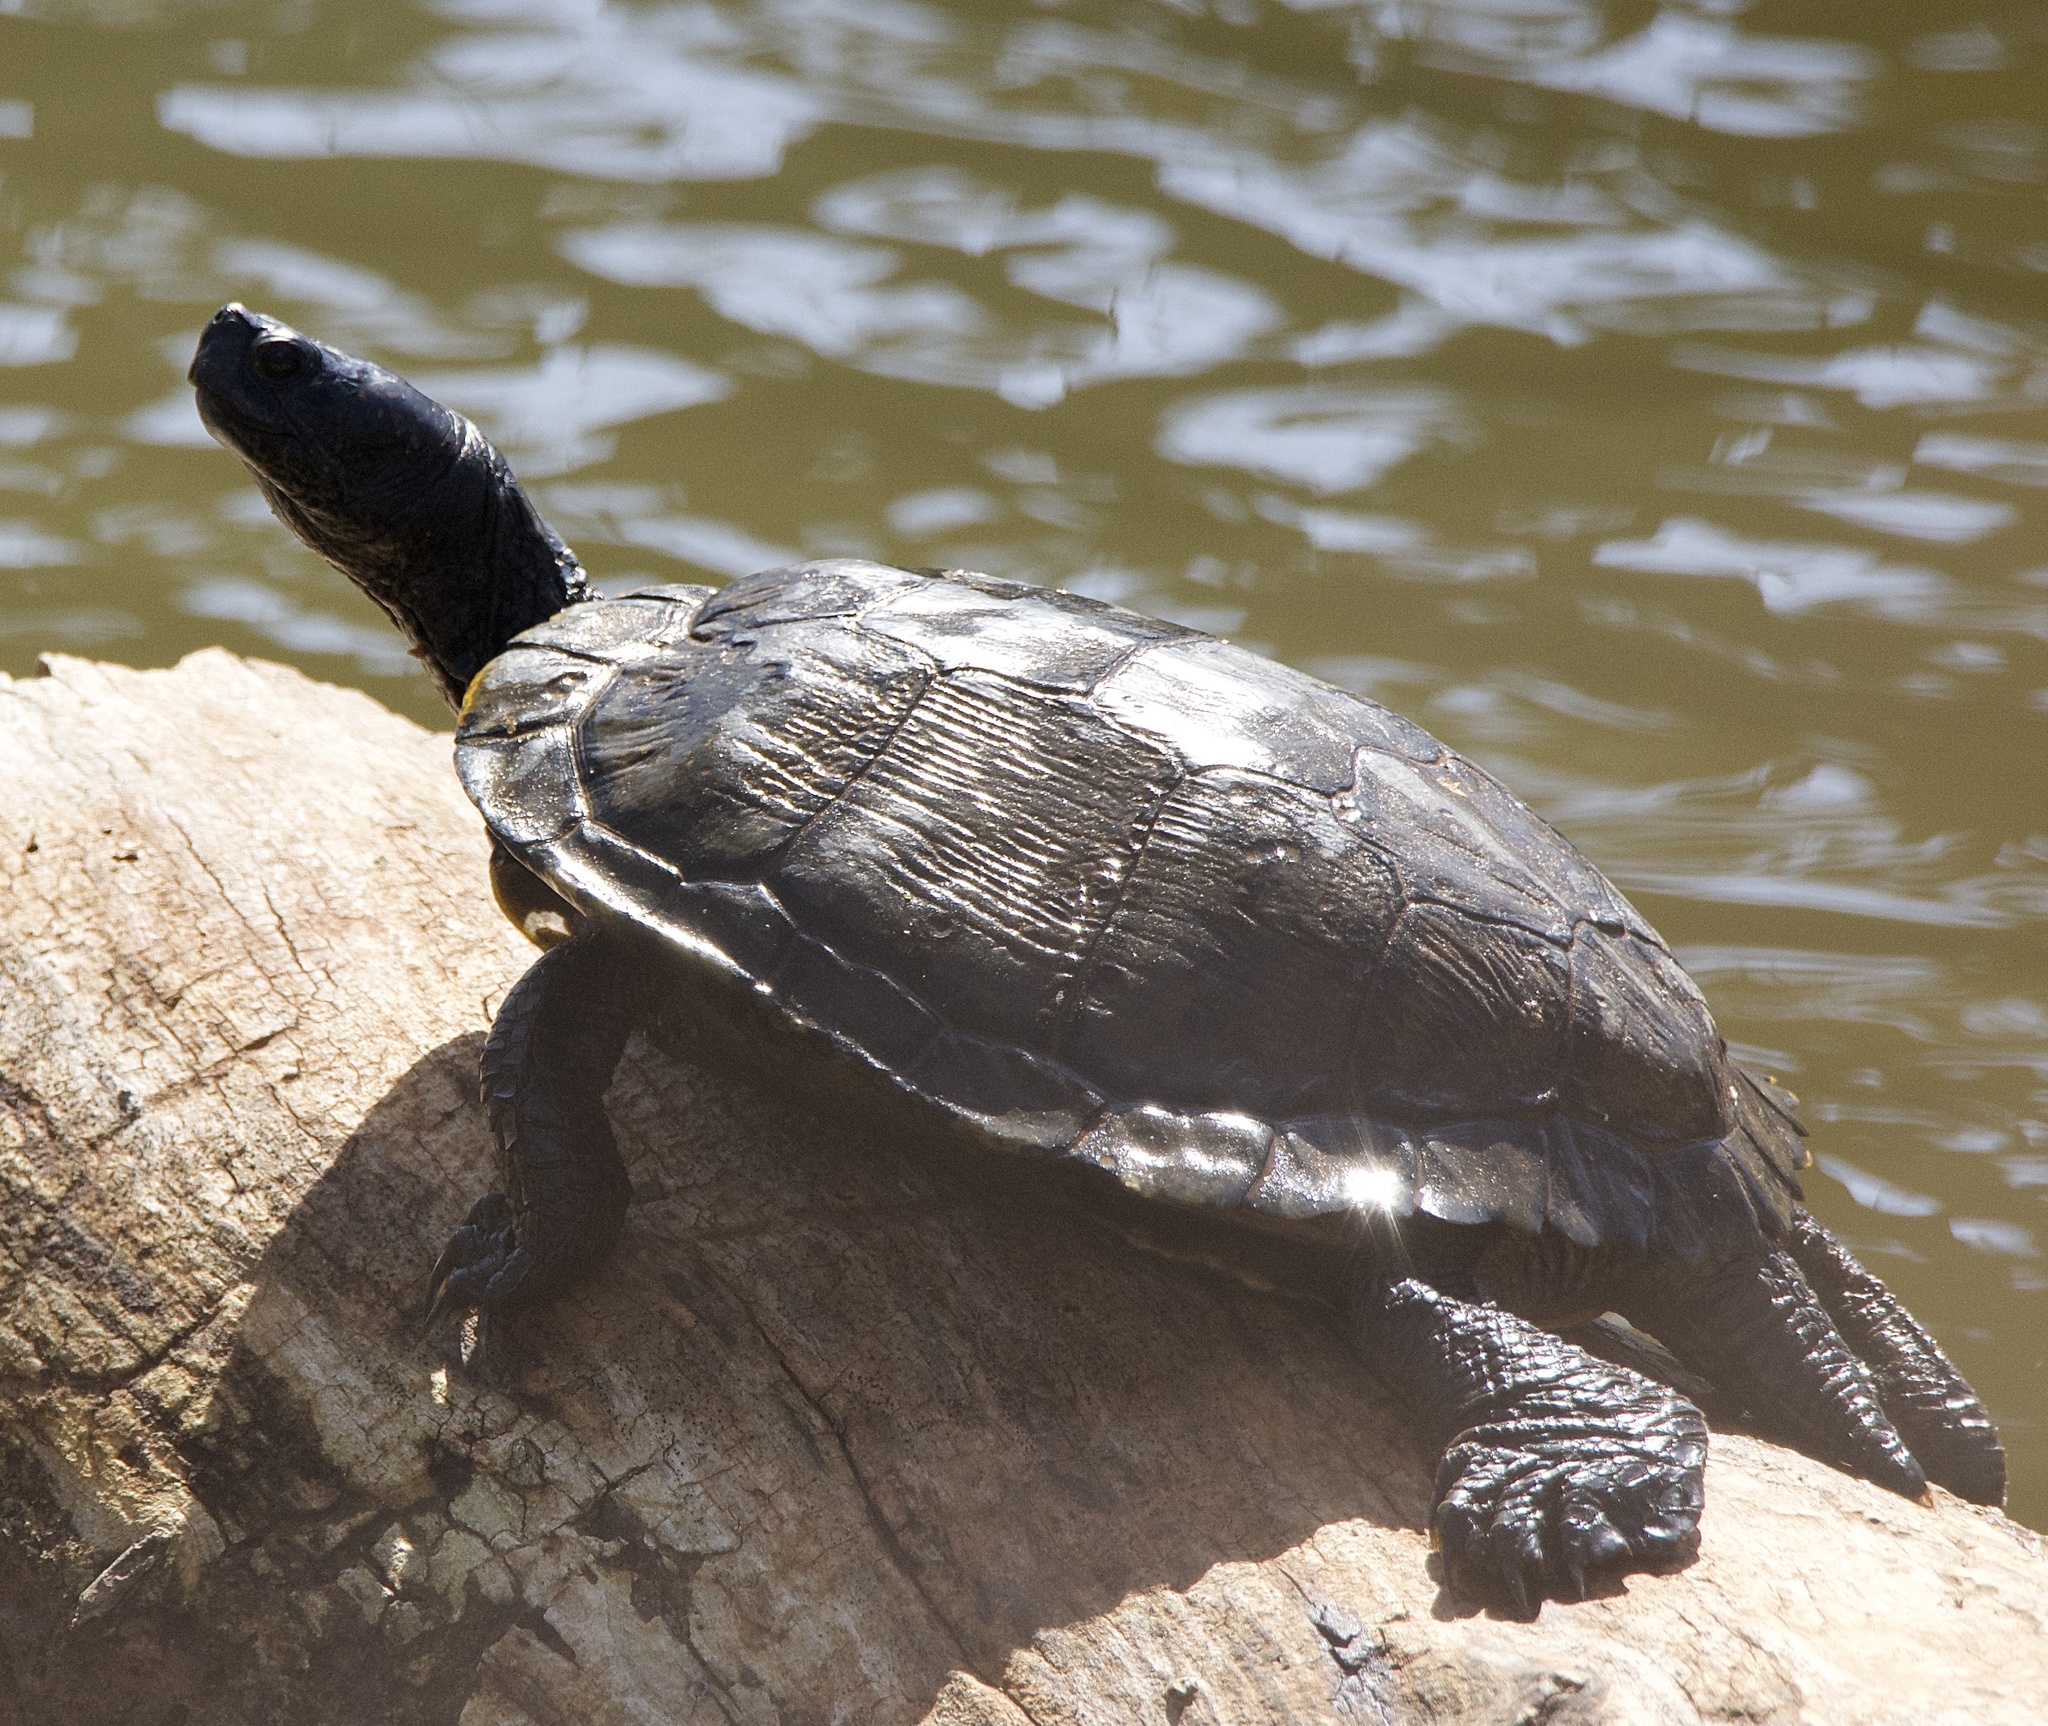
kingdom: Animalia
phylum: Chordata
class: Testudines
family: Emydidae
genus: Trachemys
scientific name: Trachemys scripta
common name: Slider
